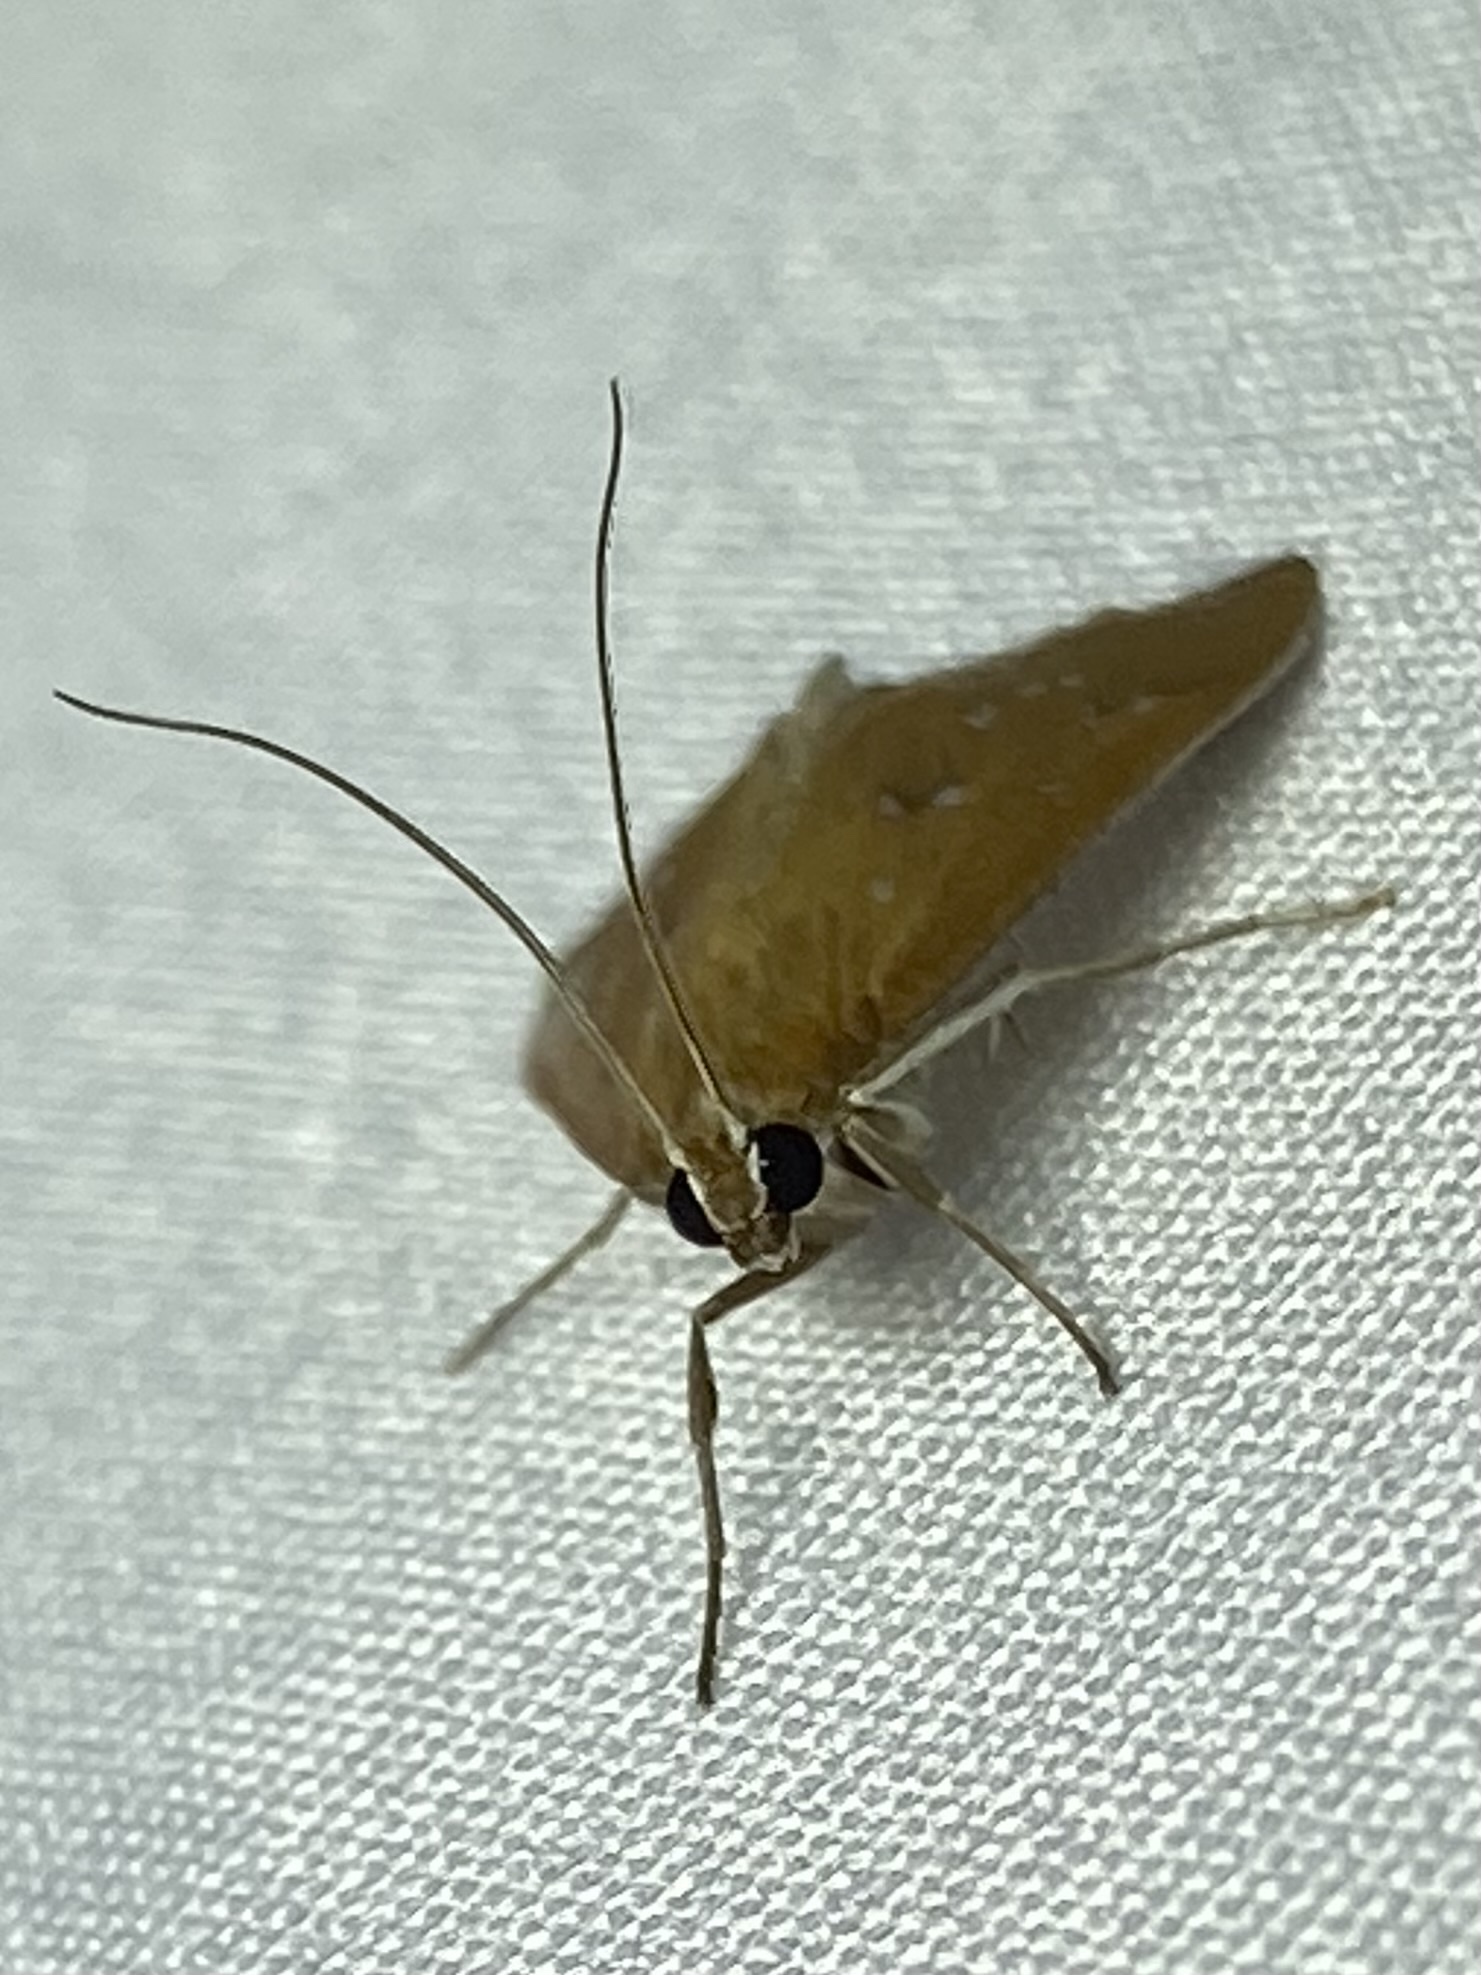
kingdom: Animalia
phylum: Arthropoda
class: Insecta
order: Lepidoptera
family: Crambidae
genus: Diastictis
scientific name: Diastictis ventralis
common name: White-spotted brown
